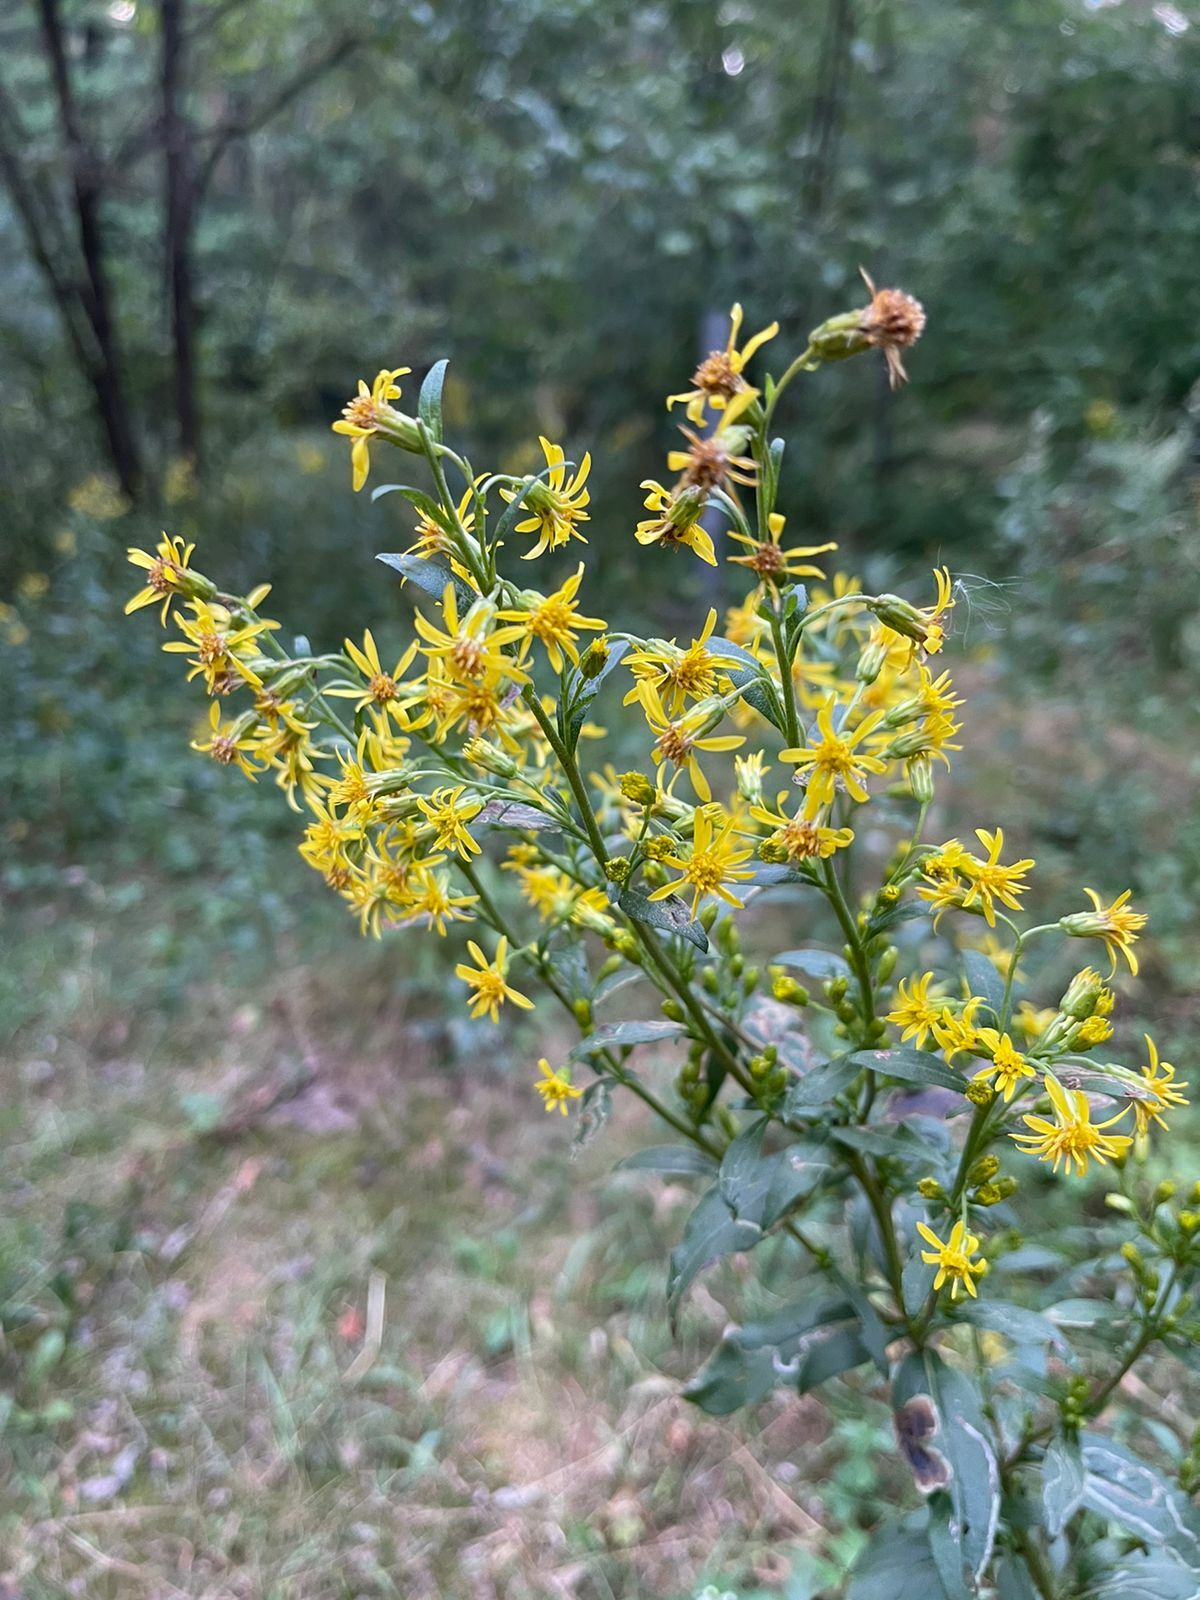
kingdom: Plantae
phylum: Tracheophyta
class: Magnoliopsida
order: Asterales
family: Asteraceae
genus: Solidago
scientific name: Solidago virgaurea
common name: Goldenrod
